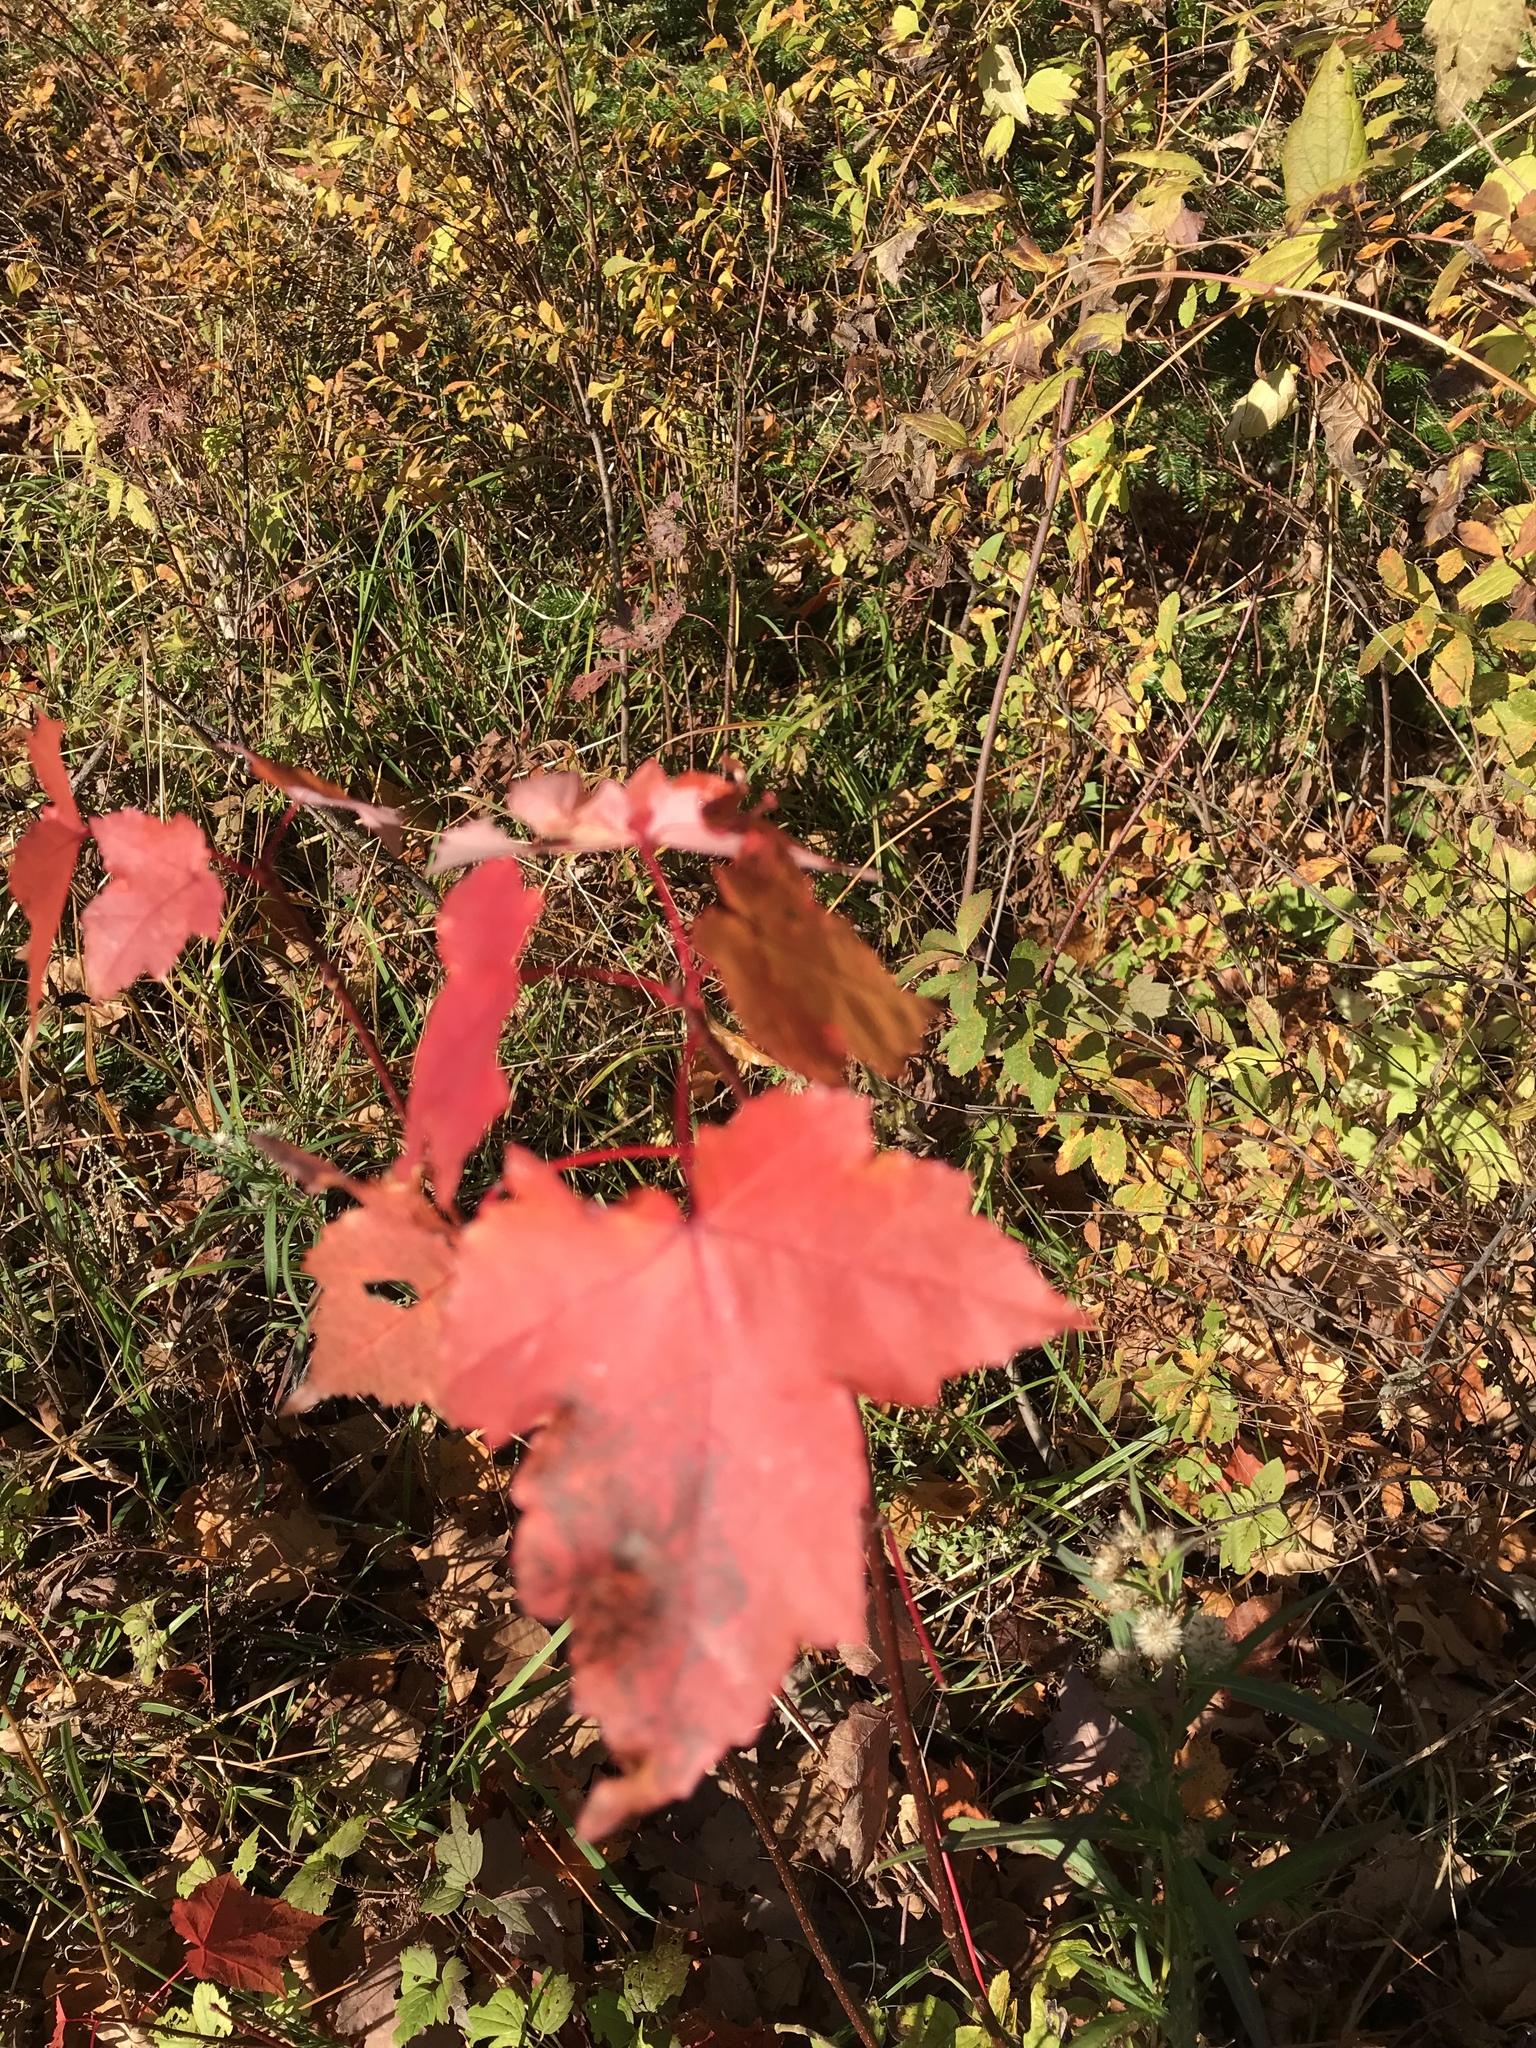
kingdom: Plantae
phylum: Tracheophyta
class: Magnoliopsida
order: Sapindales
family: Sapindaceae
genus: Acer
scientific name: Acer rubrum
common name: Red maple
